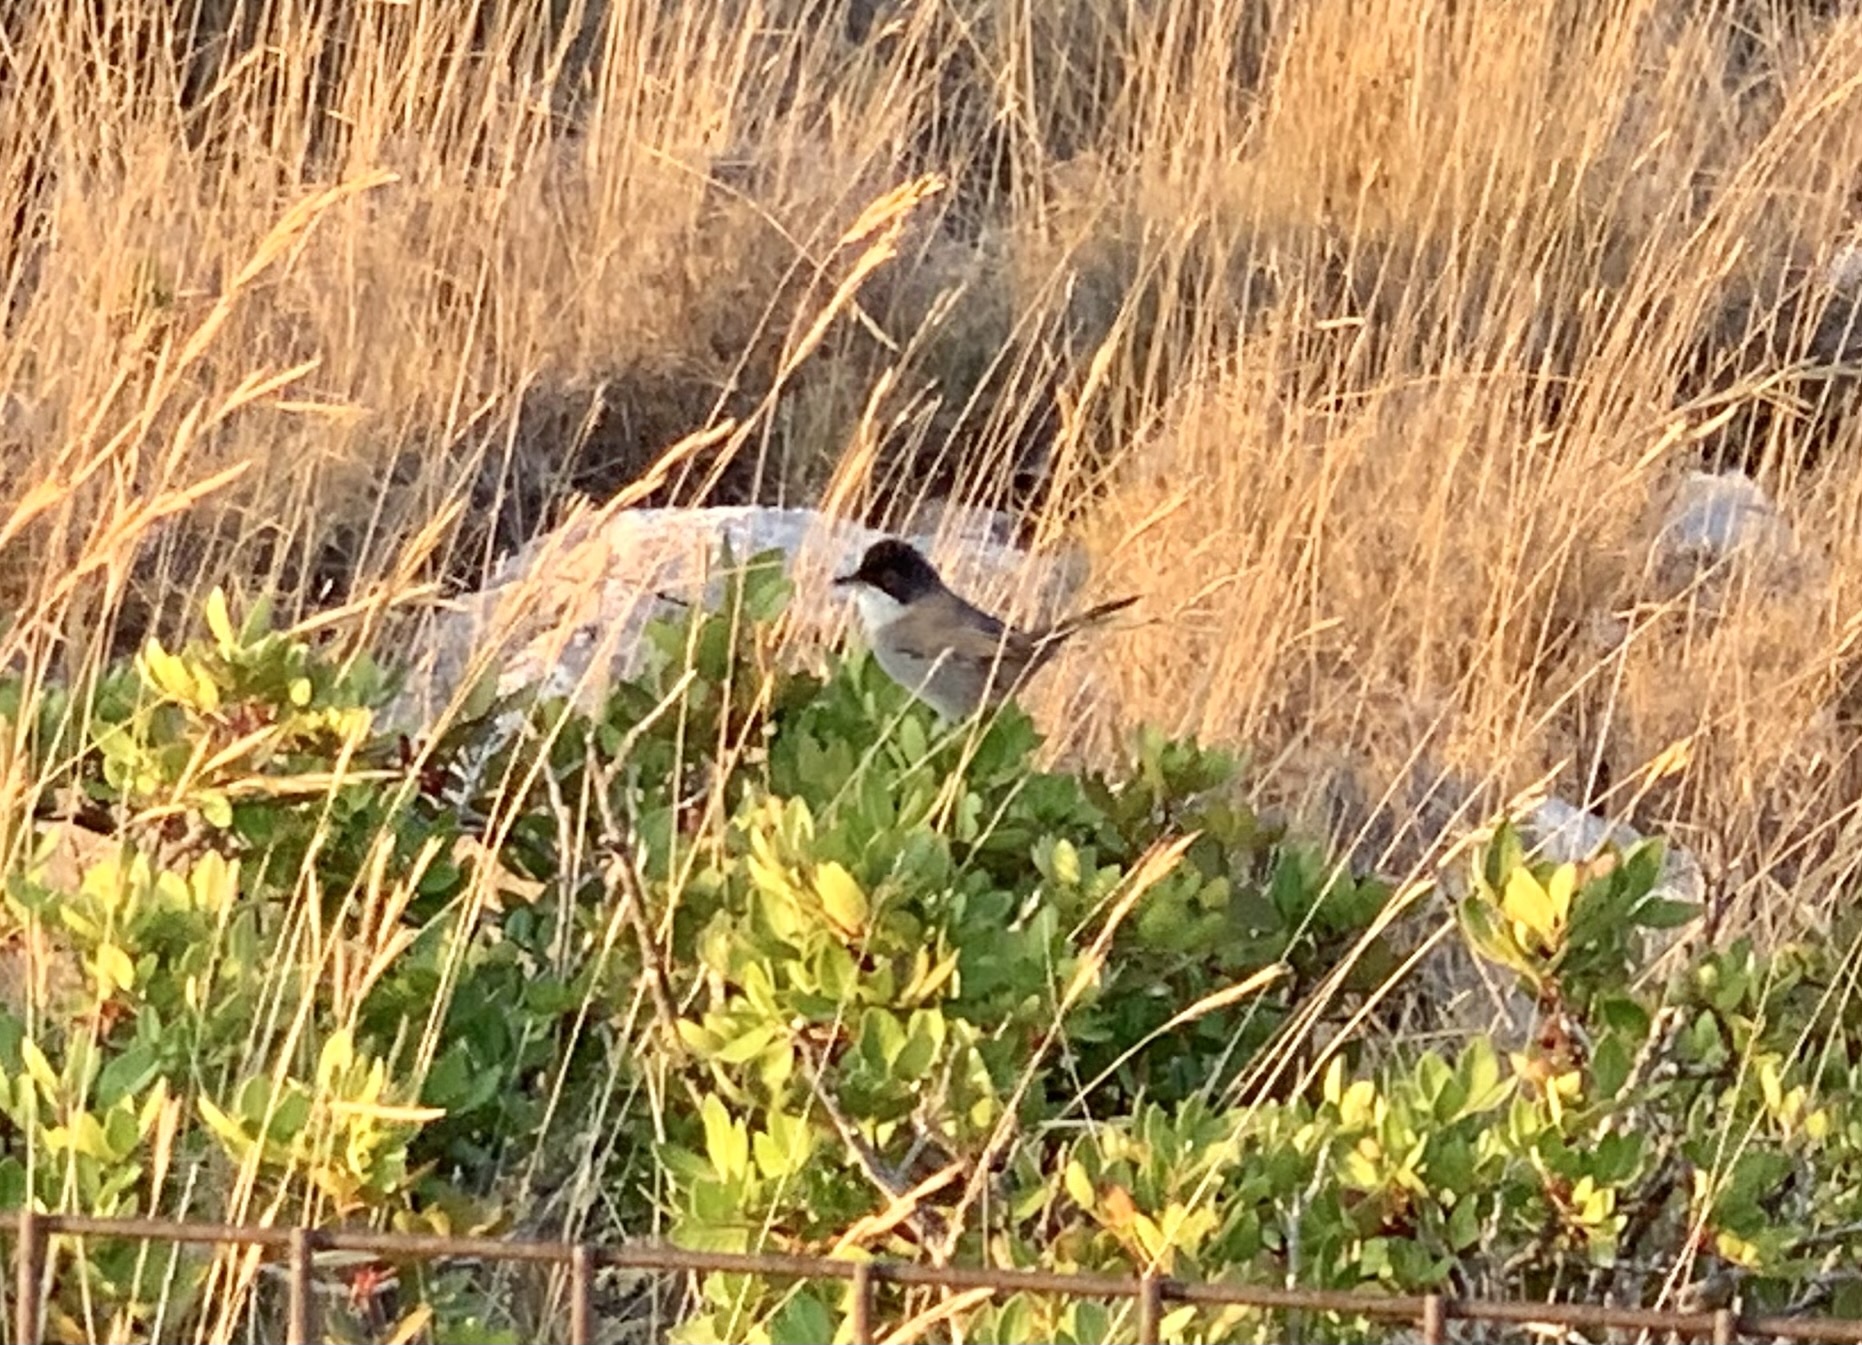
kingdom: Animalia
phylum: Chordata
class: Aves
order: Passeriformes
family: Sylviidae
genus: Curruca
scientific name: Curruca melanocephala
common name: Sardinian warbler
